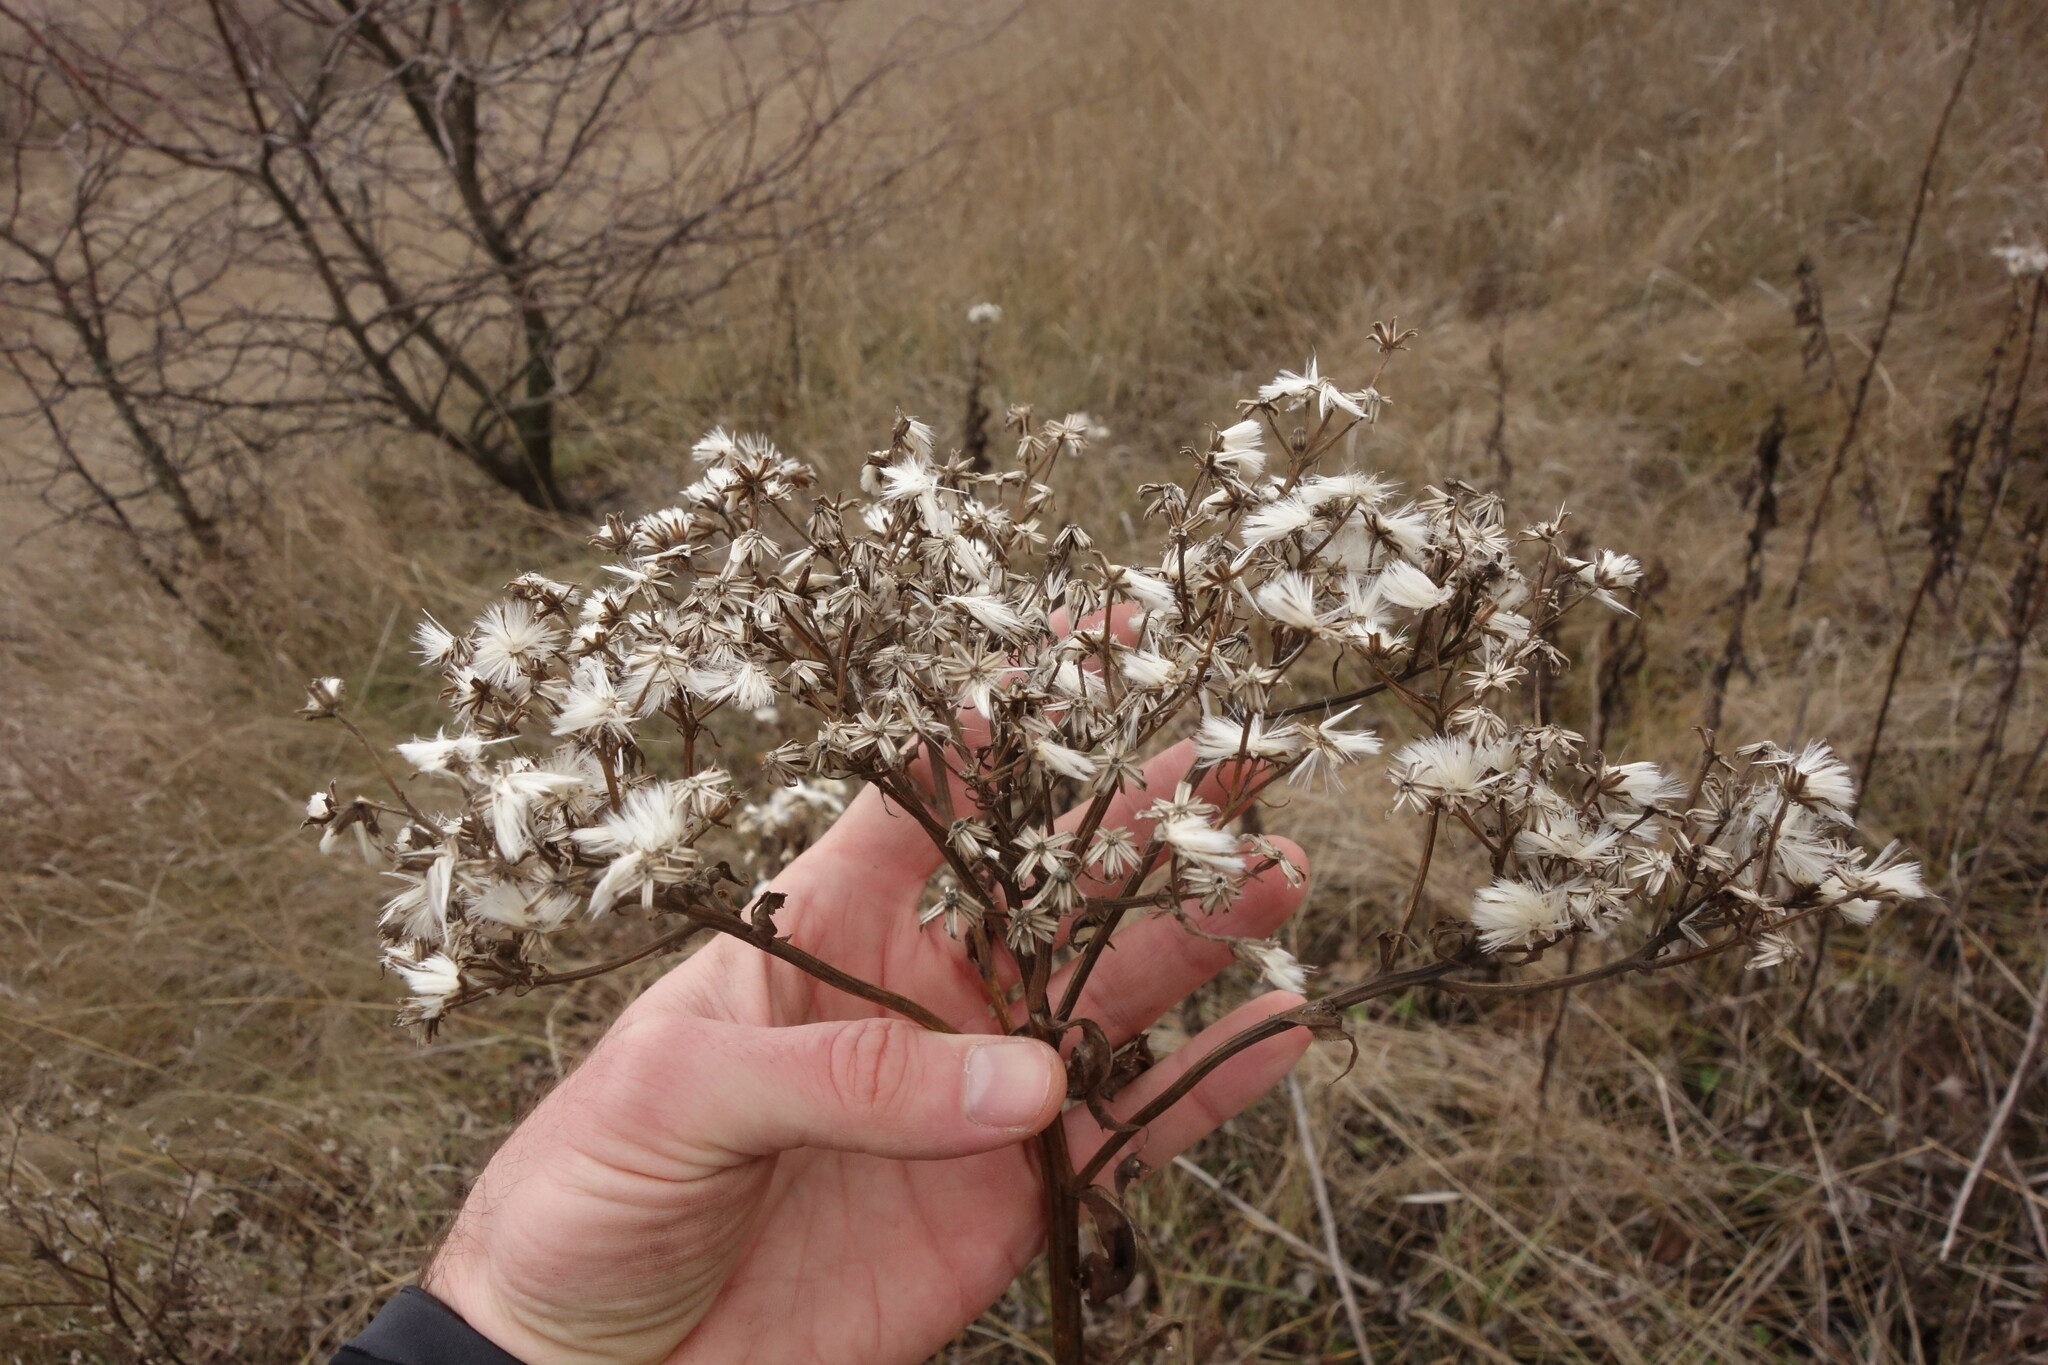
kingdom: Plantae
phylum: Tracheophyta
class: Magnoliopsida
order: Asterales
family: Asteraceae
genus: Senecio
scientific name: Senecio doria
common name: Golden ragwort
